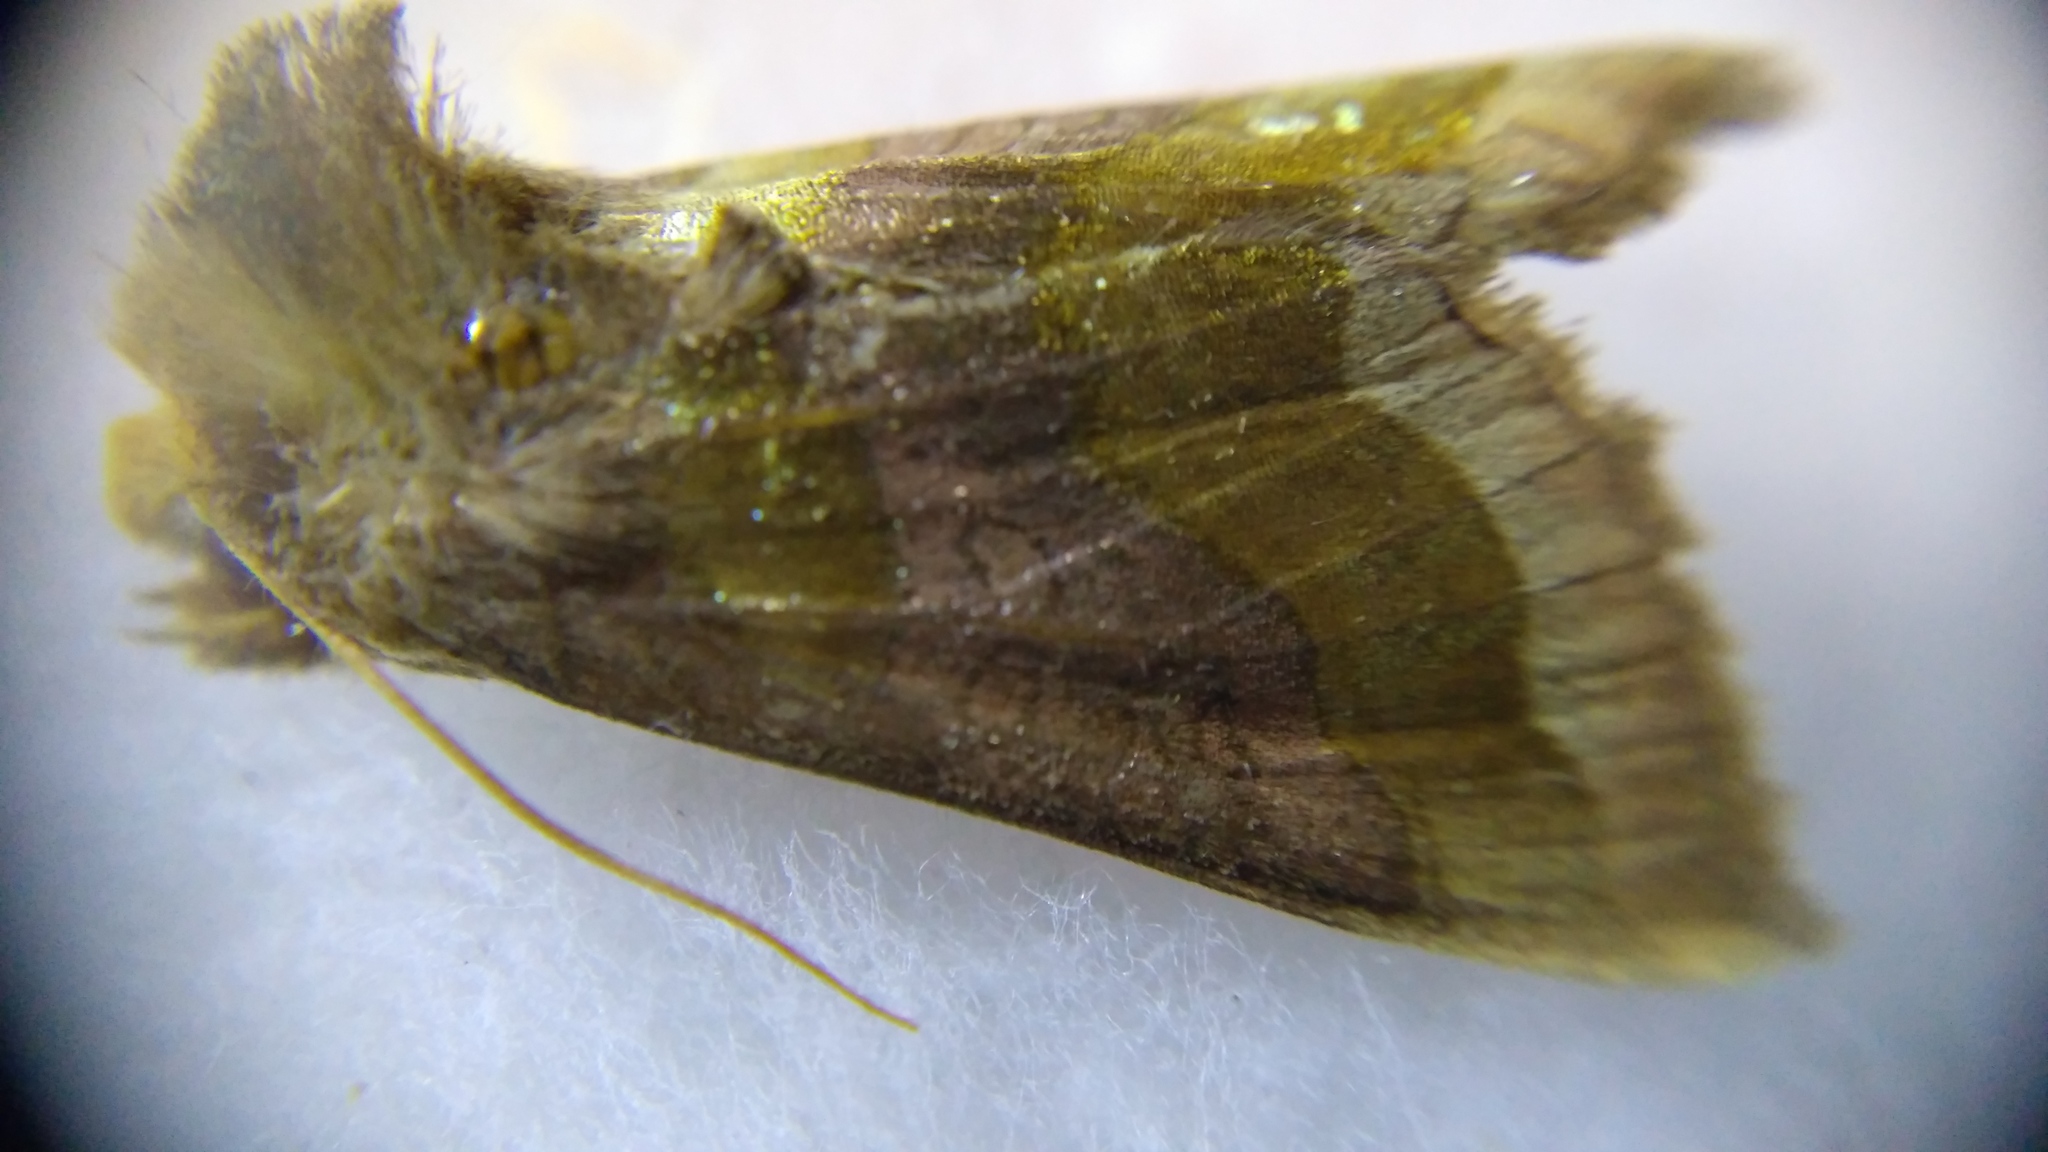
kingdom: Animalia
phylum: Arthropoda
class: Insecta
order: Lepidoptera
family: Noctuidae
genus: Diachrysia
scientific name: Diachrysia stenochrysis
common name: Cryptic burnished brass
